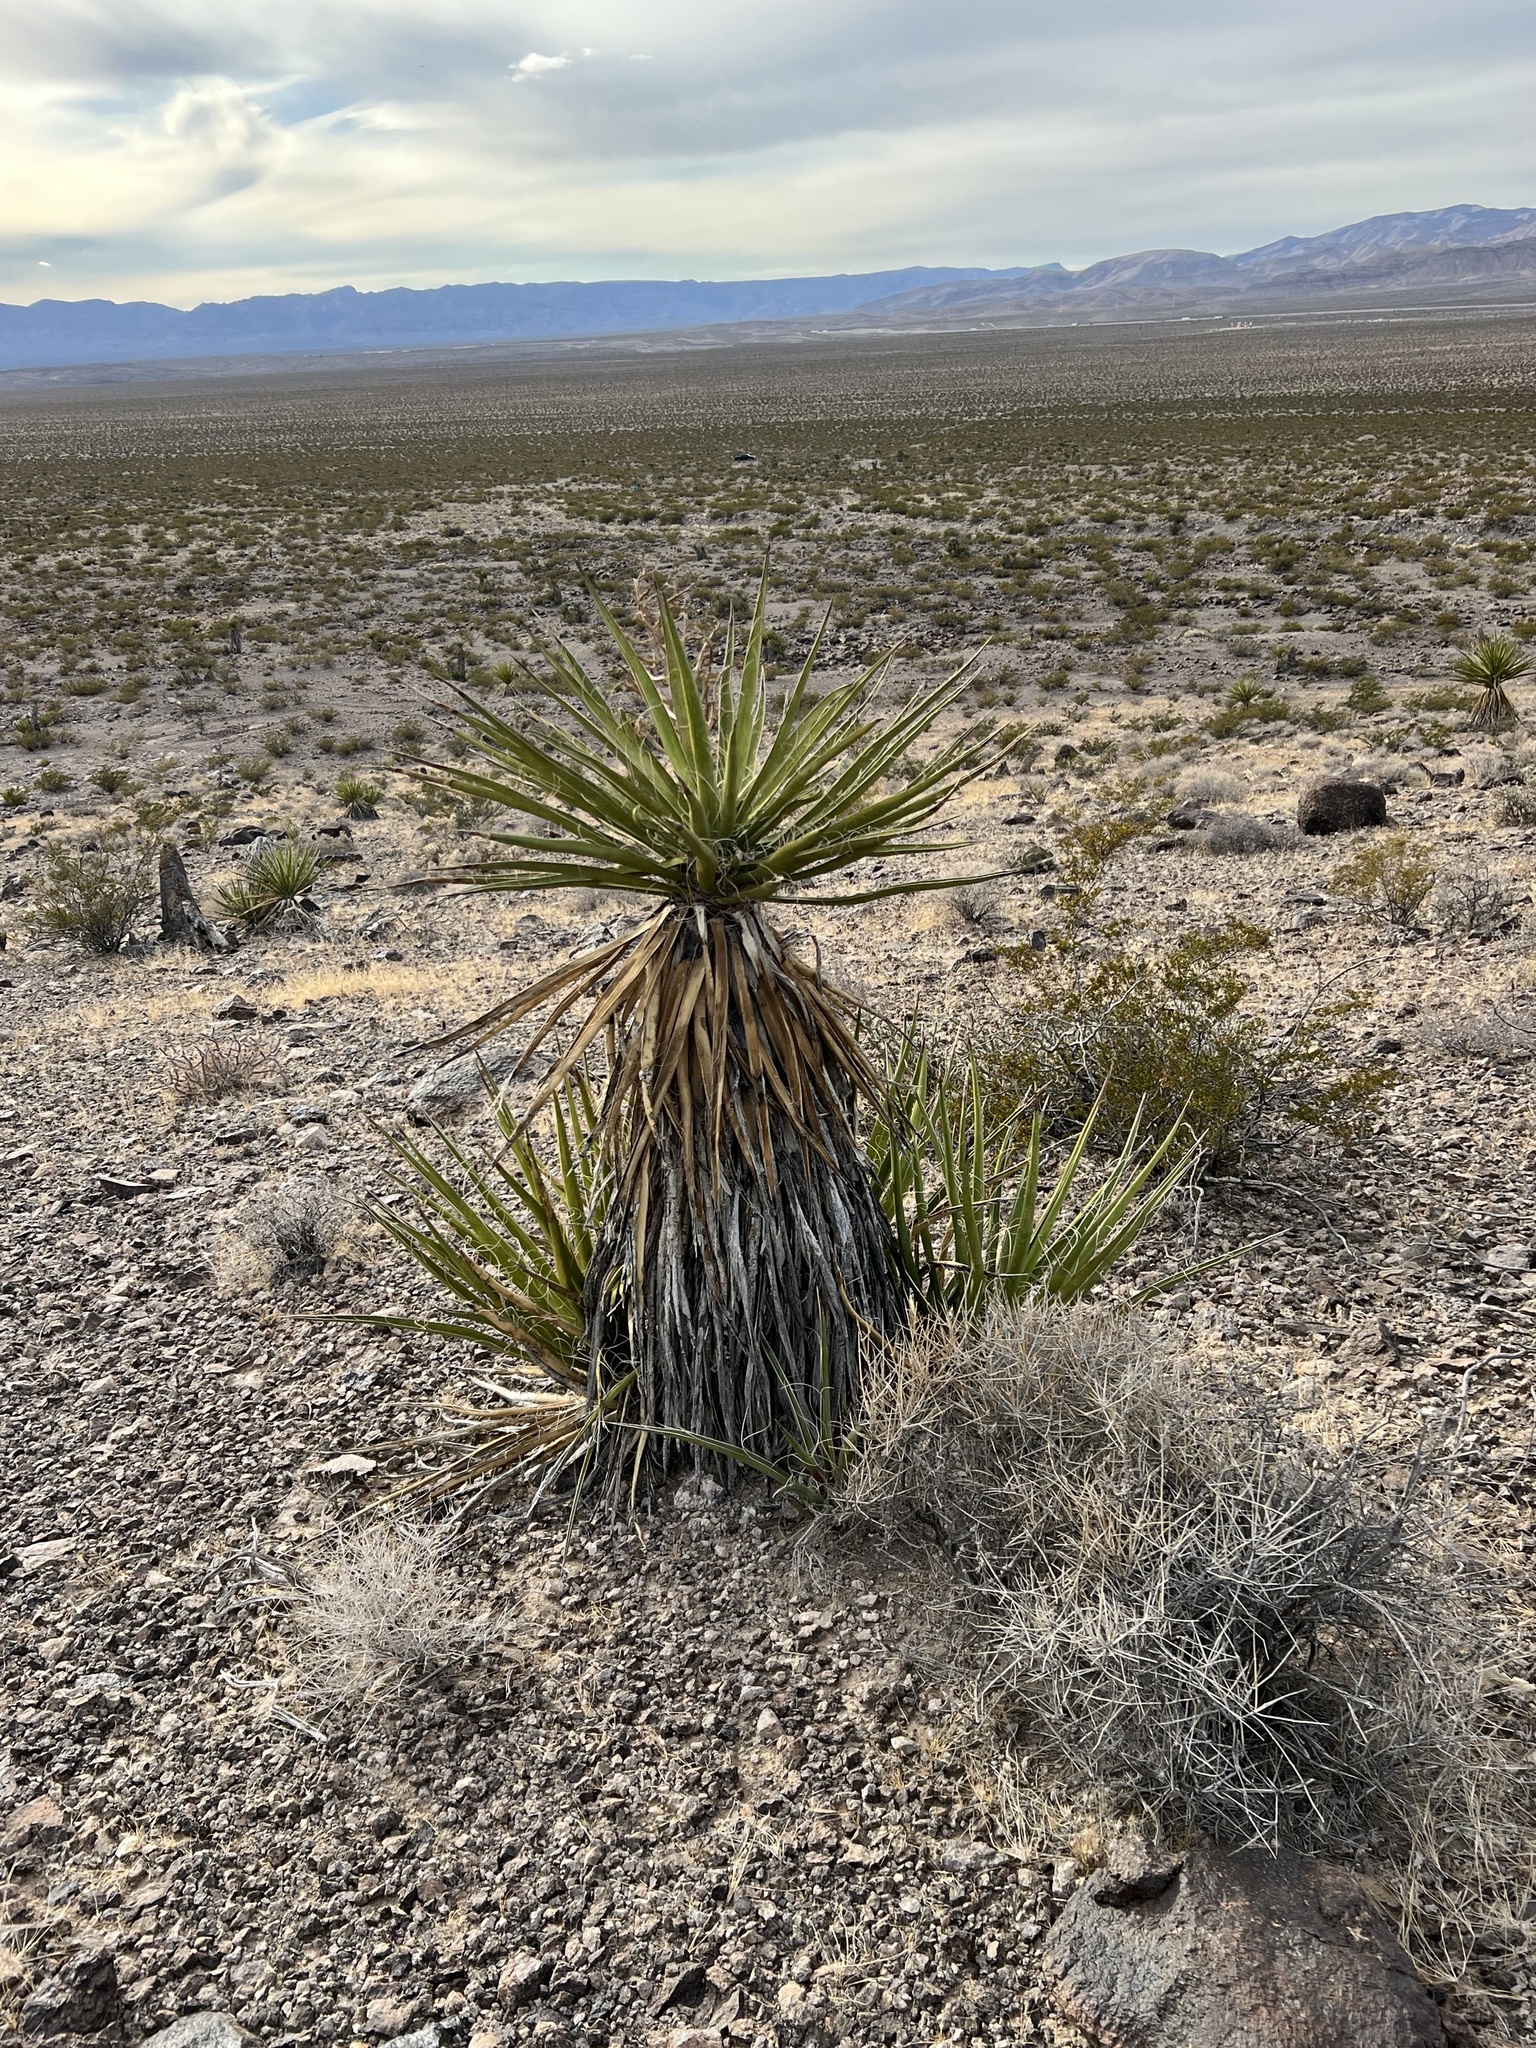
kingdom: Plantae
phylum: Tracheophyta
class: Liliopsida
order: Asparagales
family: Asparagaceae
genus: Yucca
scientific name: Yucca schidigera
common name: Mojave yucca
